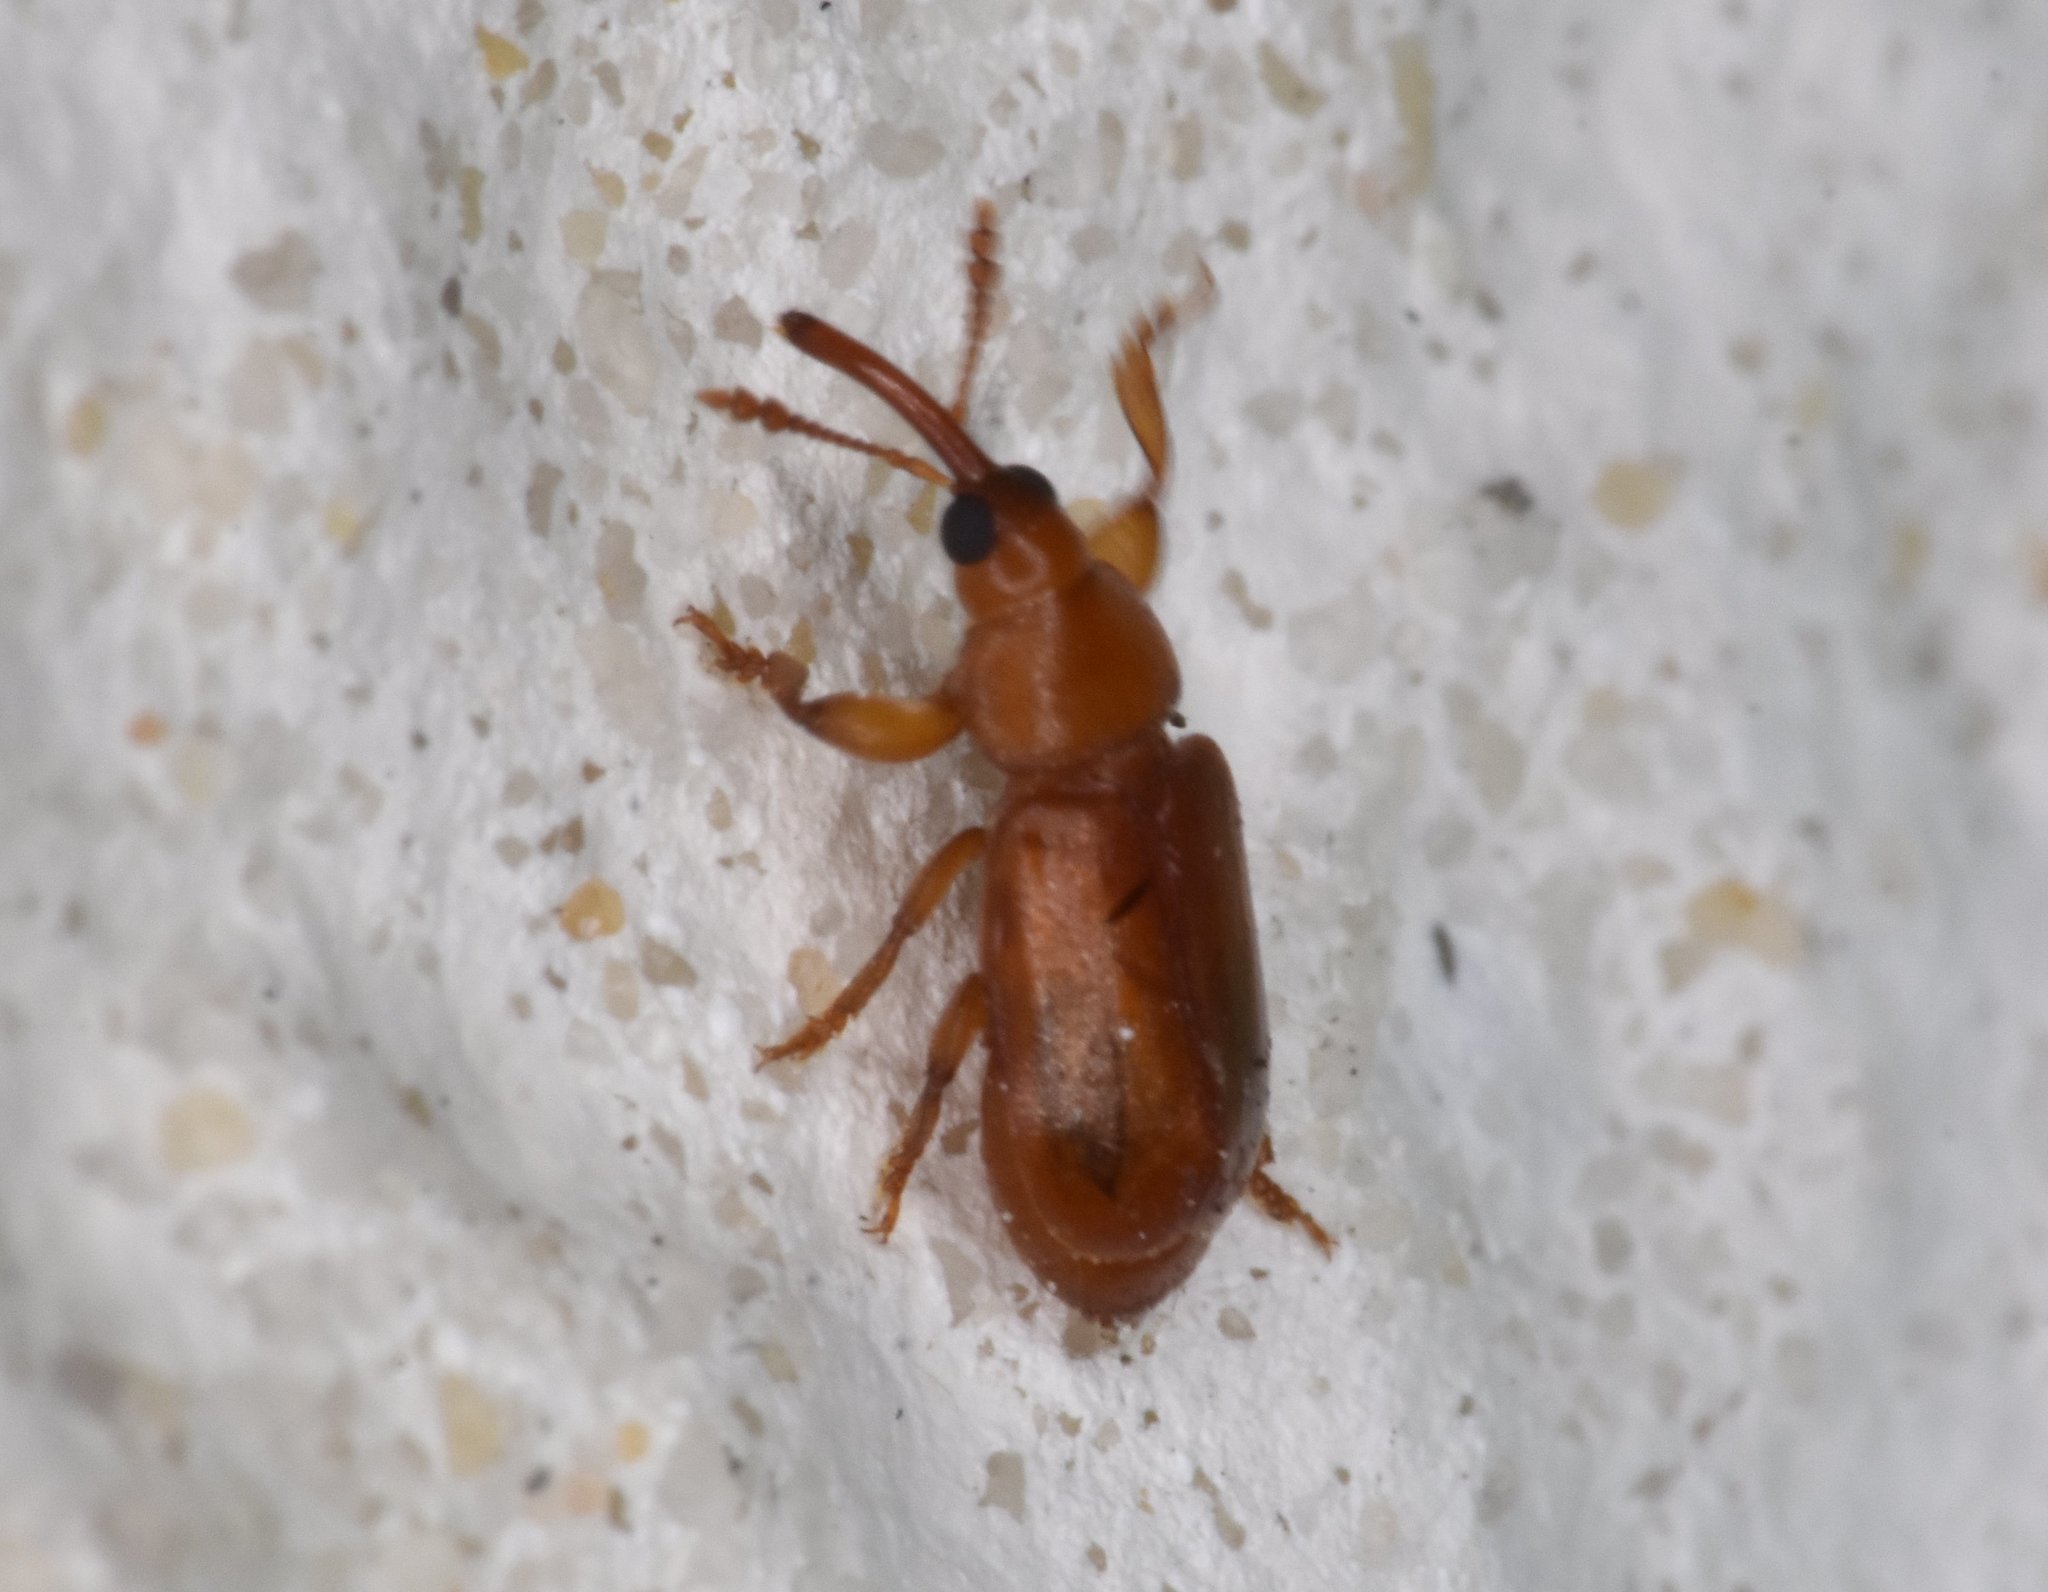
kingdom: Animalia
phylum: Arthropoda
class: Insecta
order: Coleoptera
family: Belidae
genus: Rhopalotria
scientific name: Rhopalotria furfuracea
